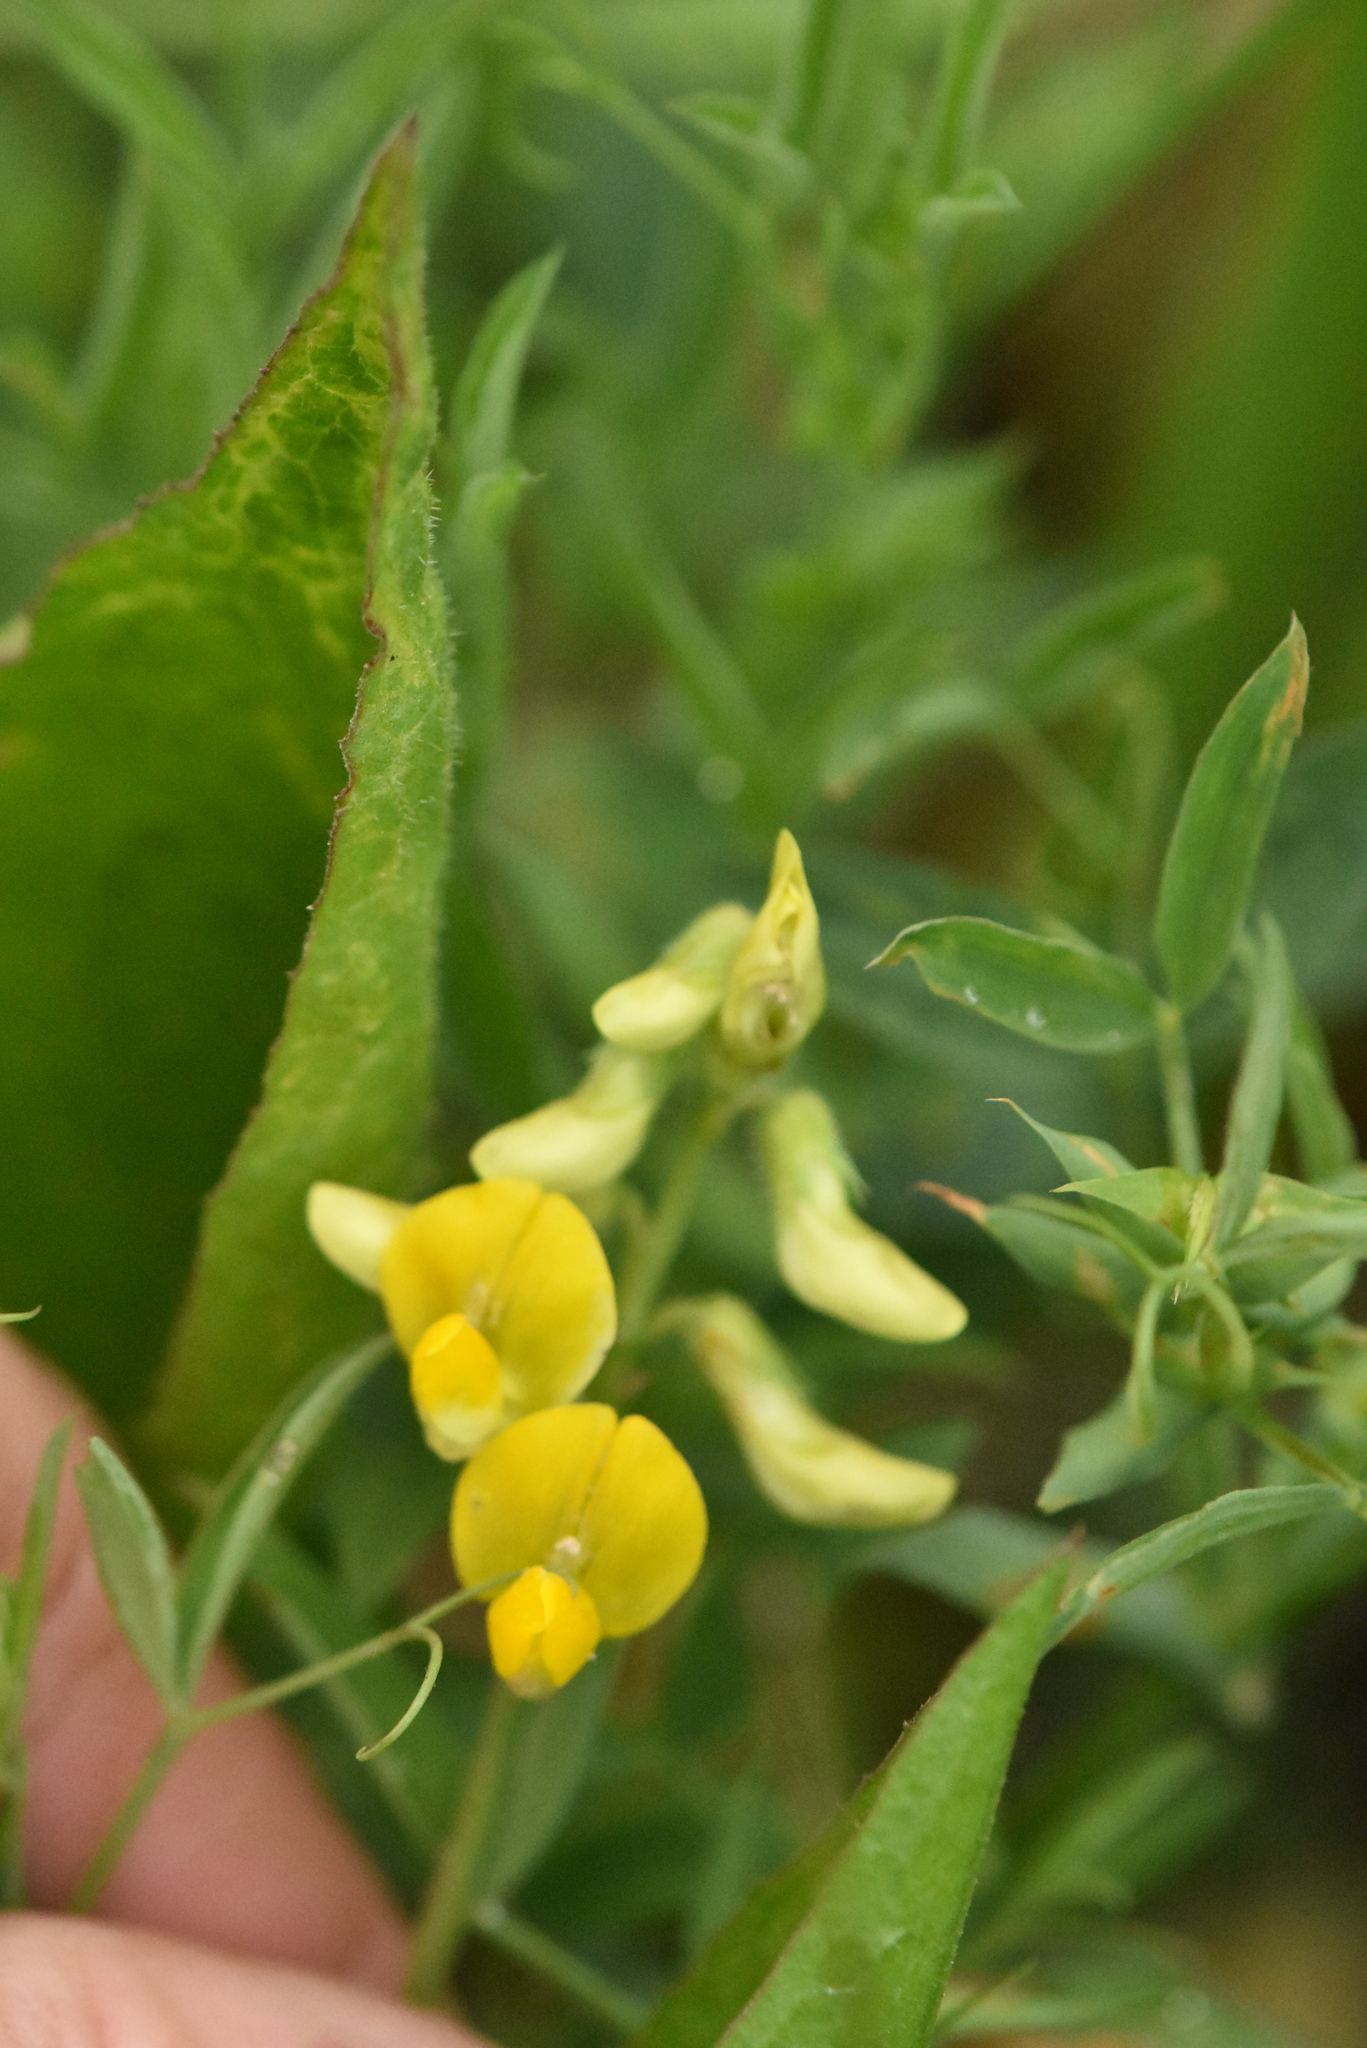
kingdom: Plantae
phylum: Tracheophyta
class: Magnoliopsida
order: Fabales
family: Fabaceae
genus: Lathyrus
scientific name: Lathyrus pratensis
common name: Meadow vetchling
